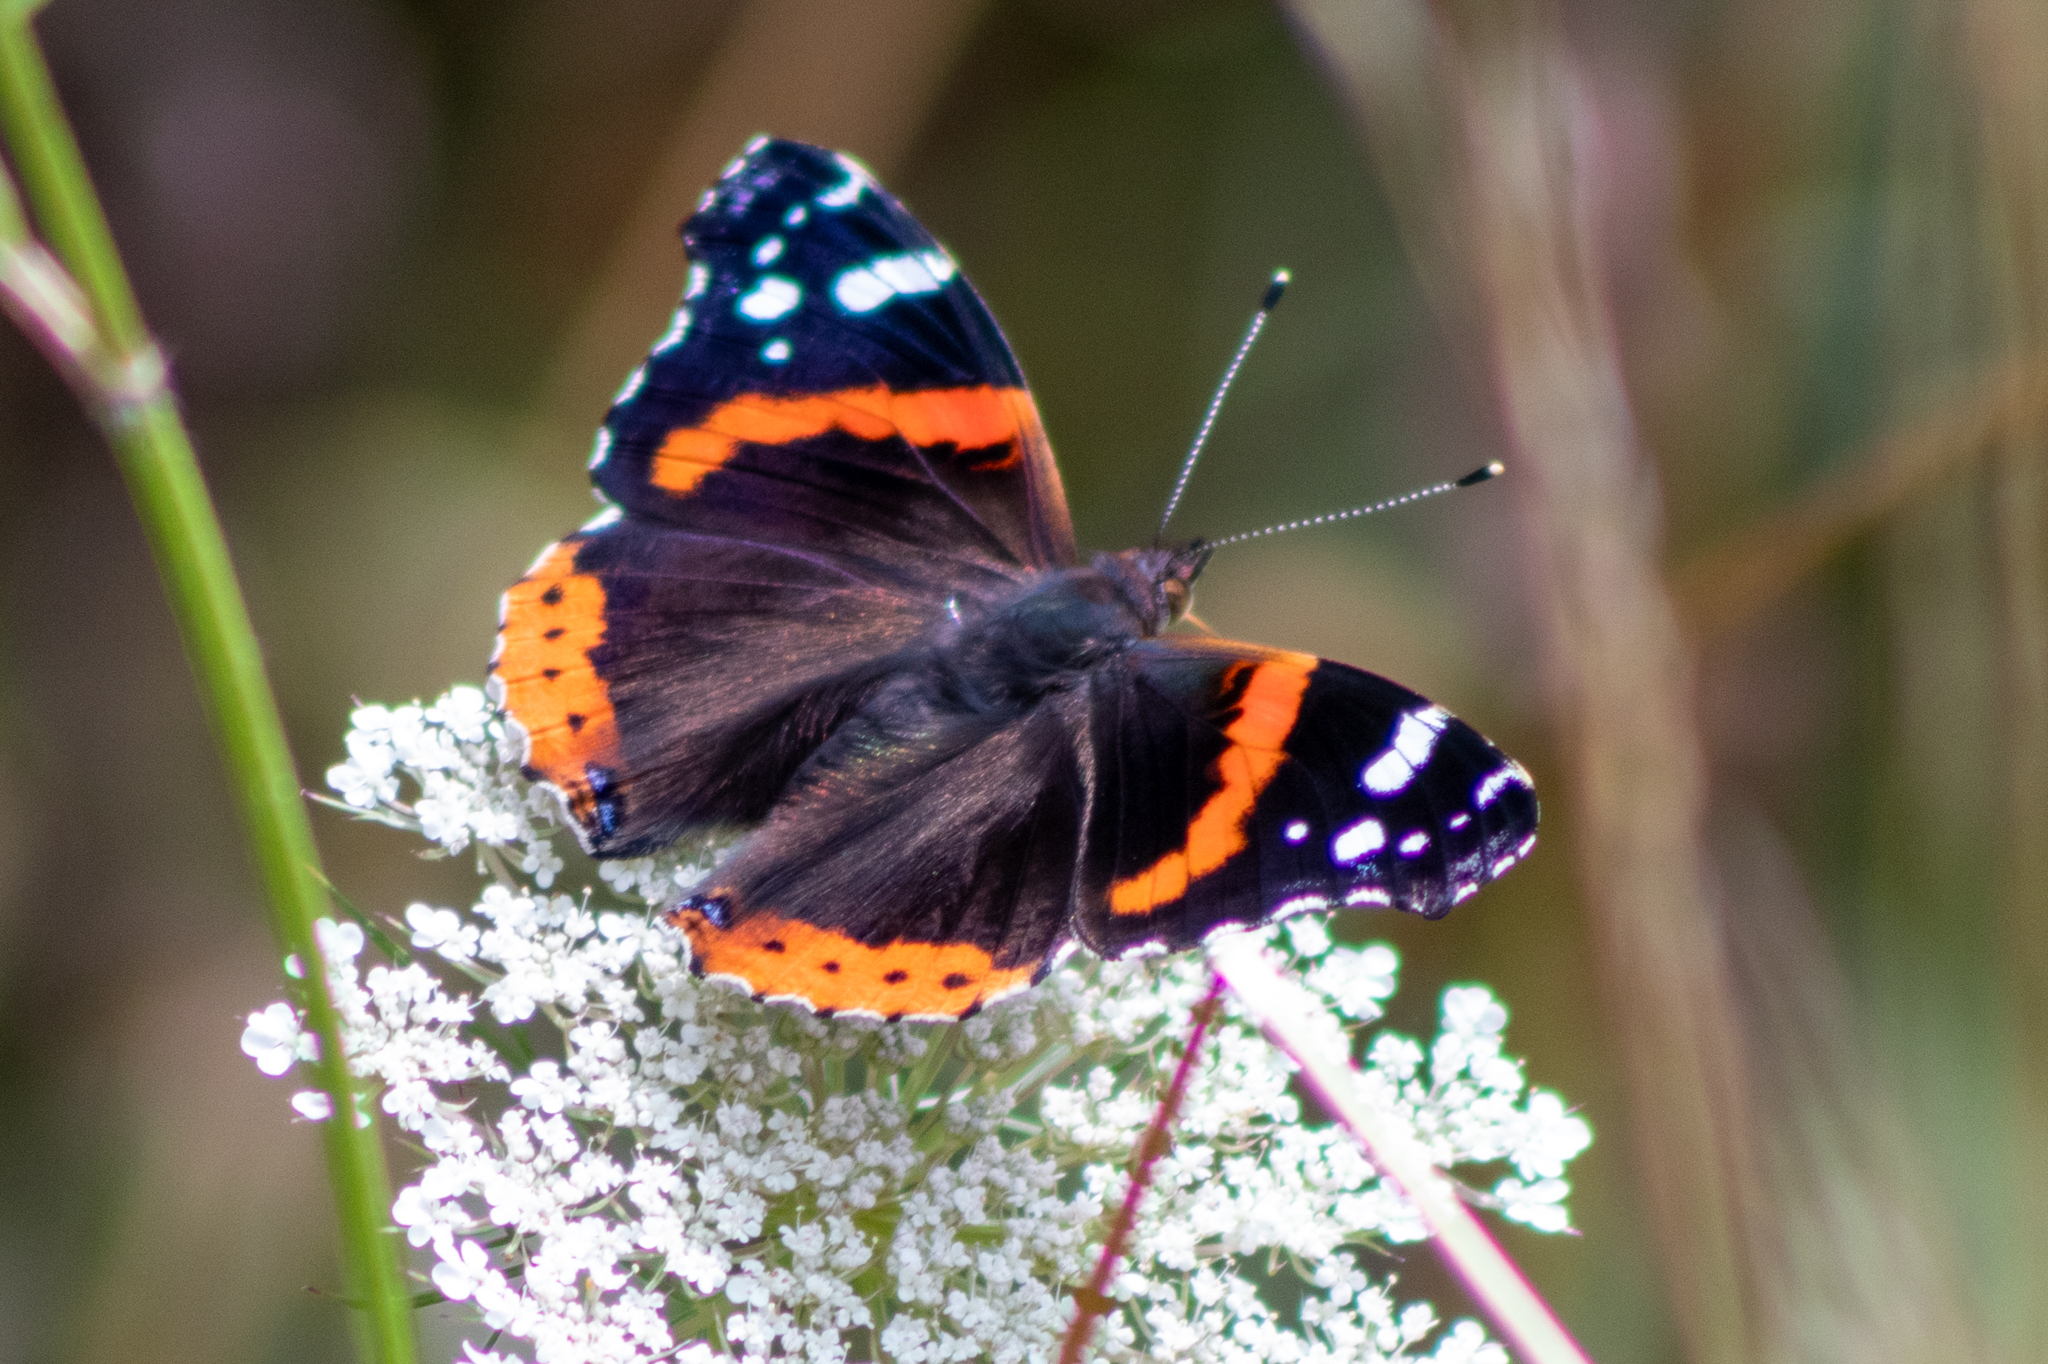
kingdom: Animalia
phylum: Arthropoda
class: Insecta
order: Lepidoptera
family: Nymphalidae
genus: Vanessa
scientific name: Vanessa atalanta
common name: Red admiral
